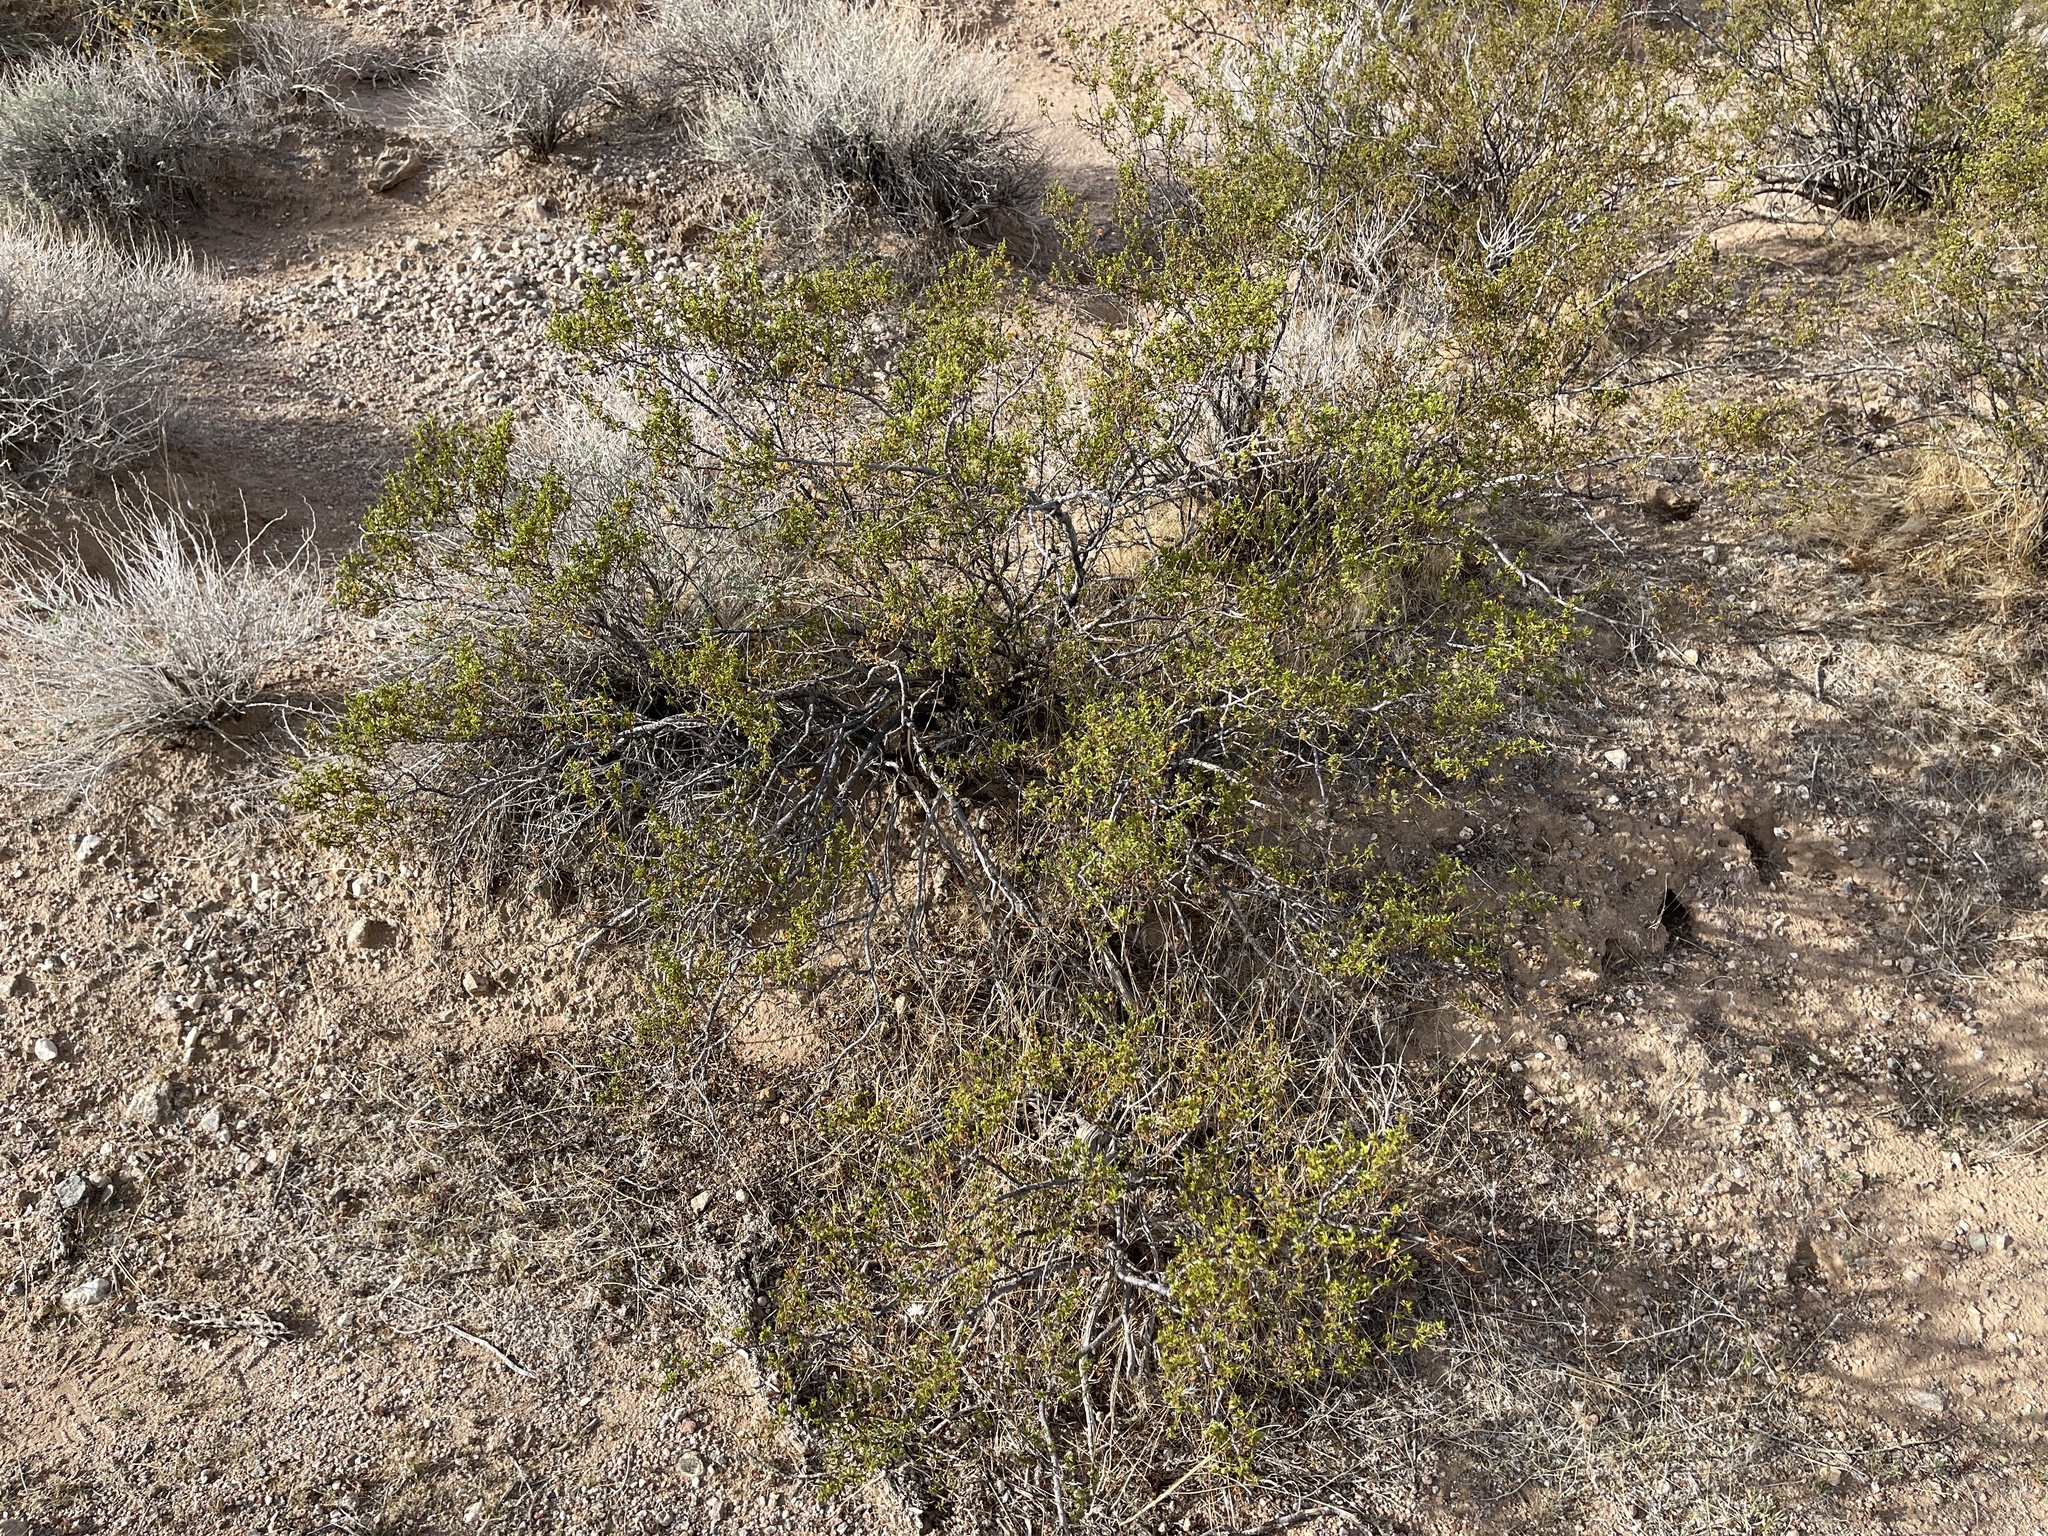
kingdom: Plantae
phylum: Tracheophyta
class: Magnoliopsida
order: Zygophyllales
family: Zygophyllaceae
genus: Larrea
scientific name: Larrea tridentata
